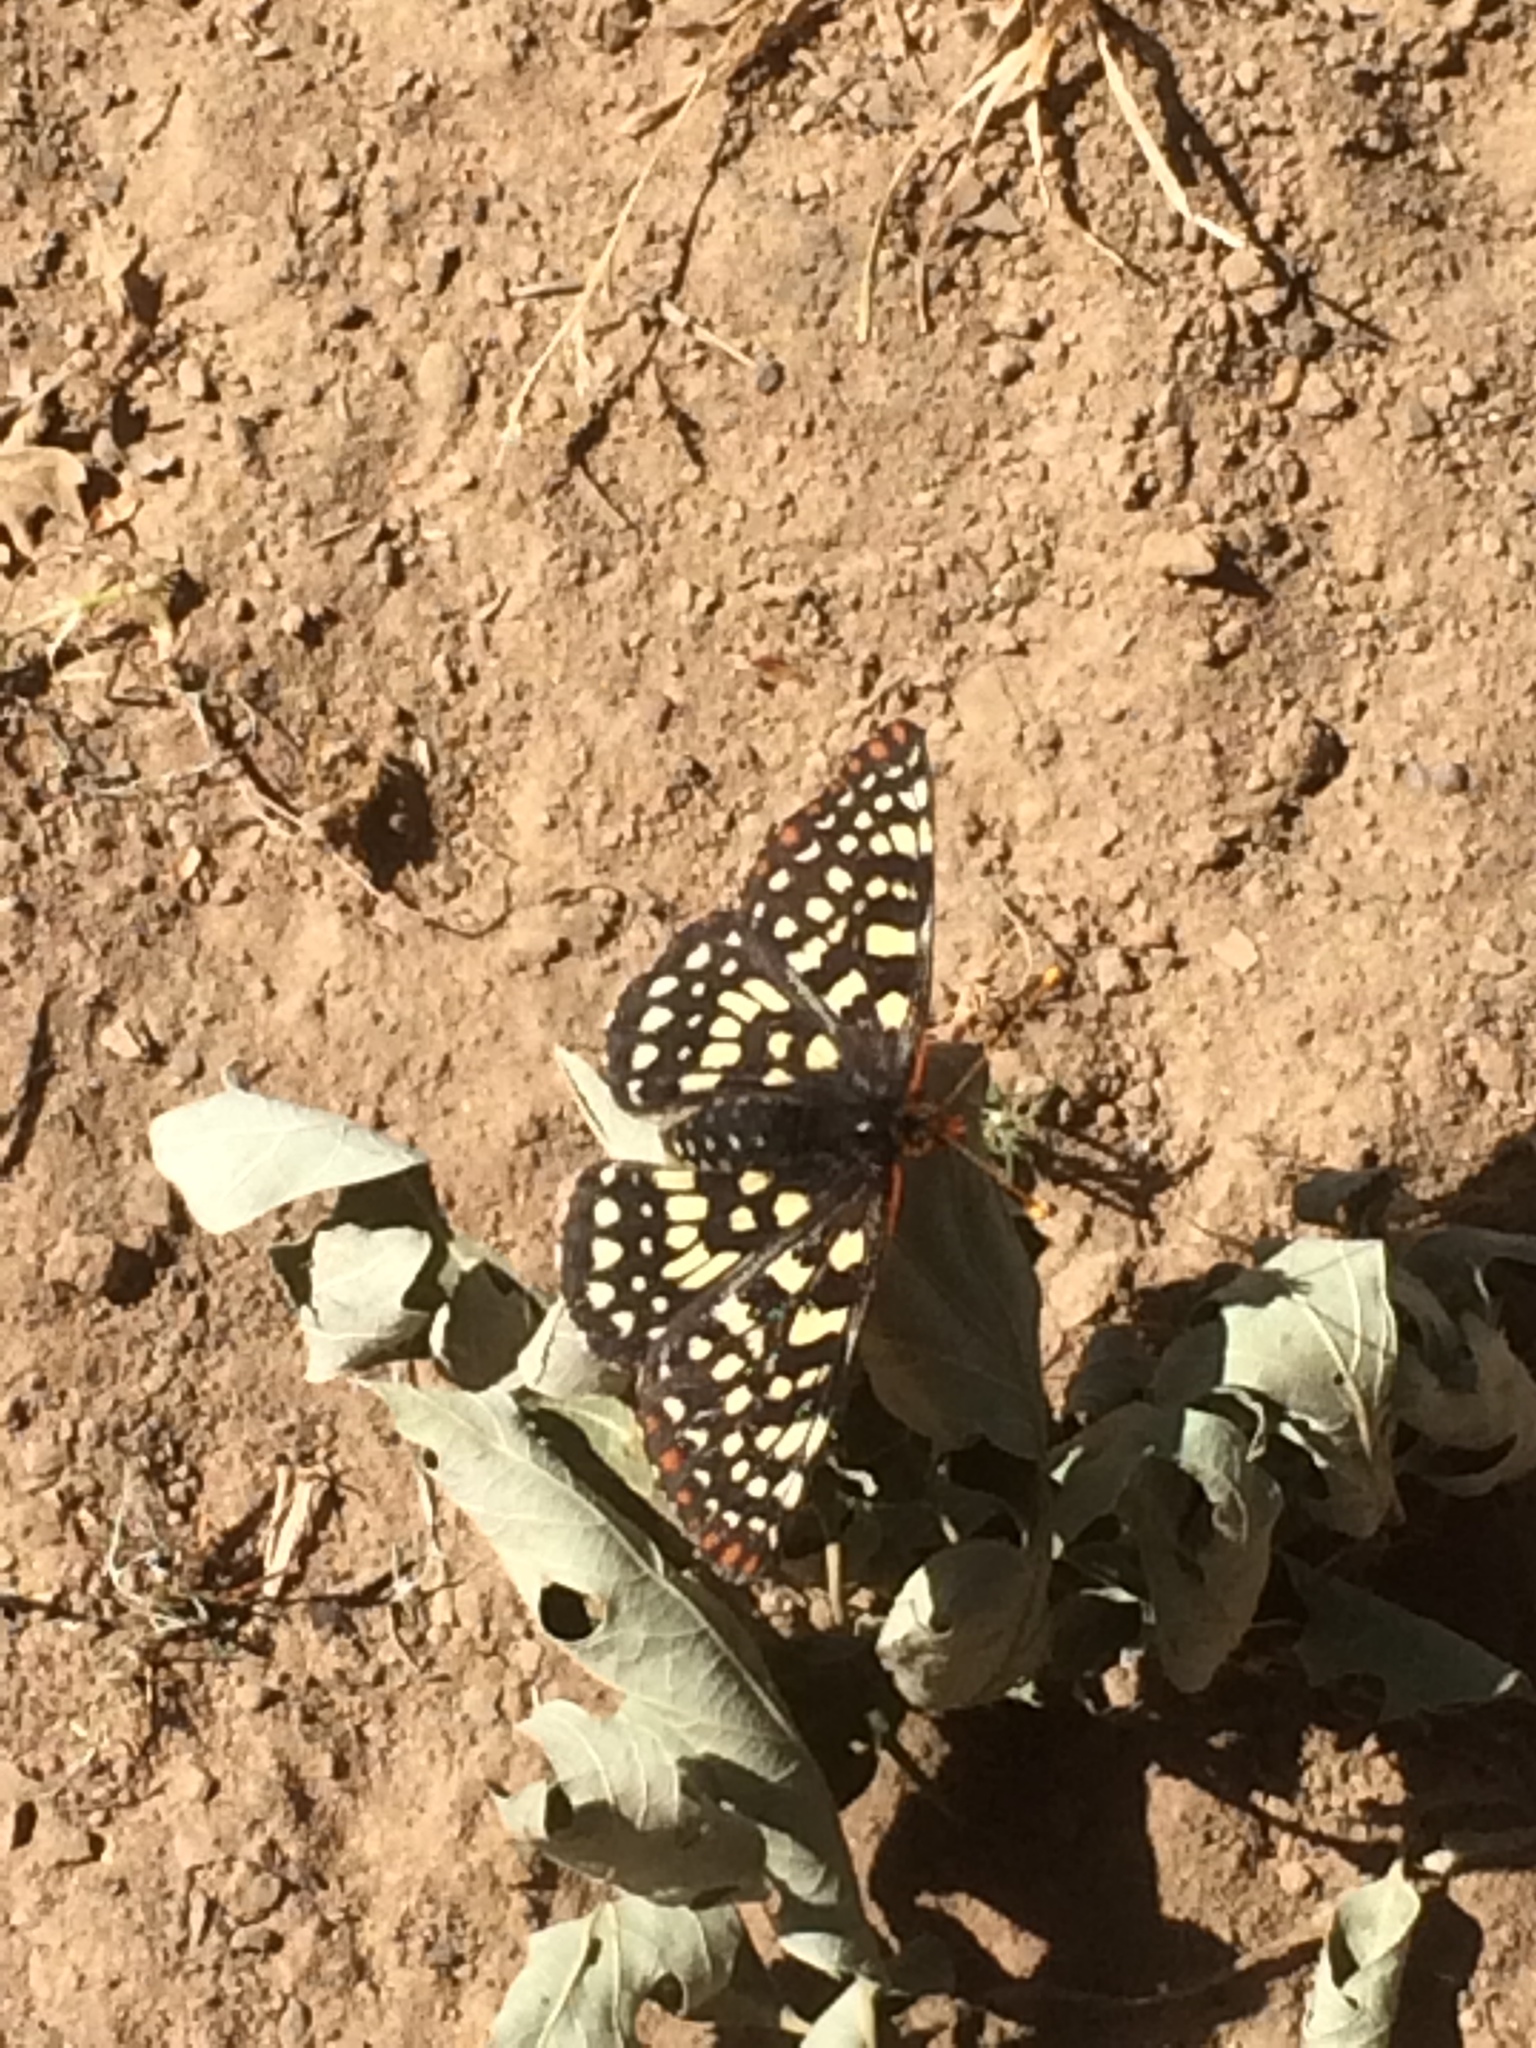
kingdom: Animalia
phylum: Arthropoda
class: Insecta
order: Lepidoptera
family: Nymphalidae
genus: Occidryas
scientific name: Occidryas chalcedona
